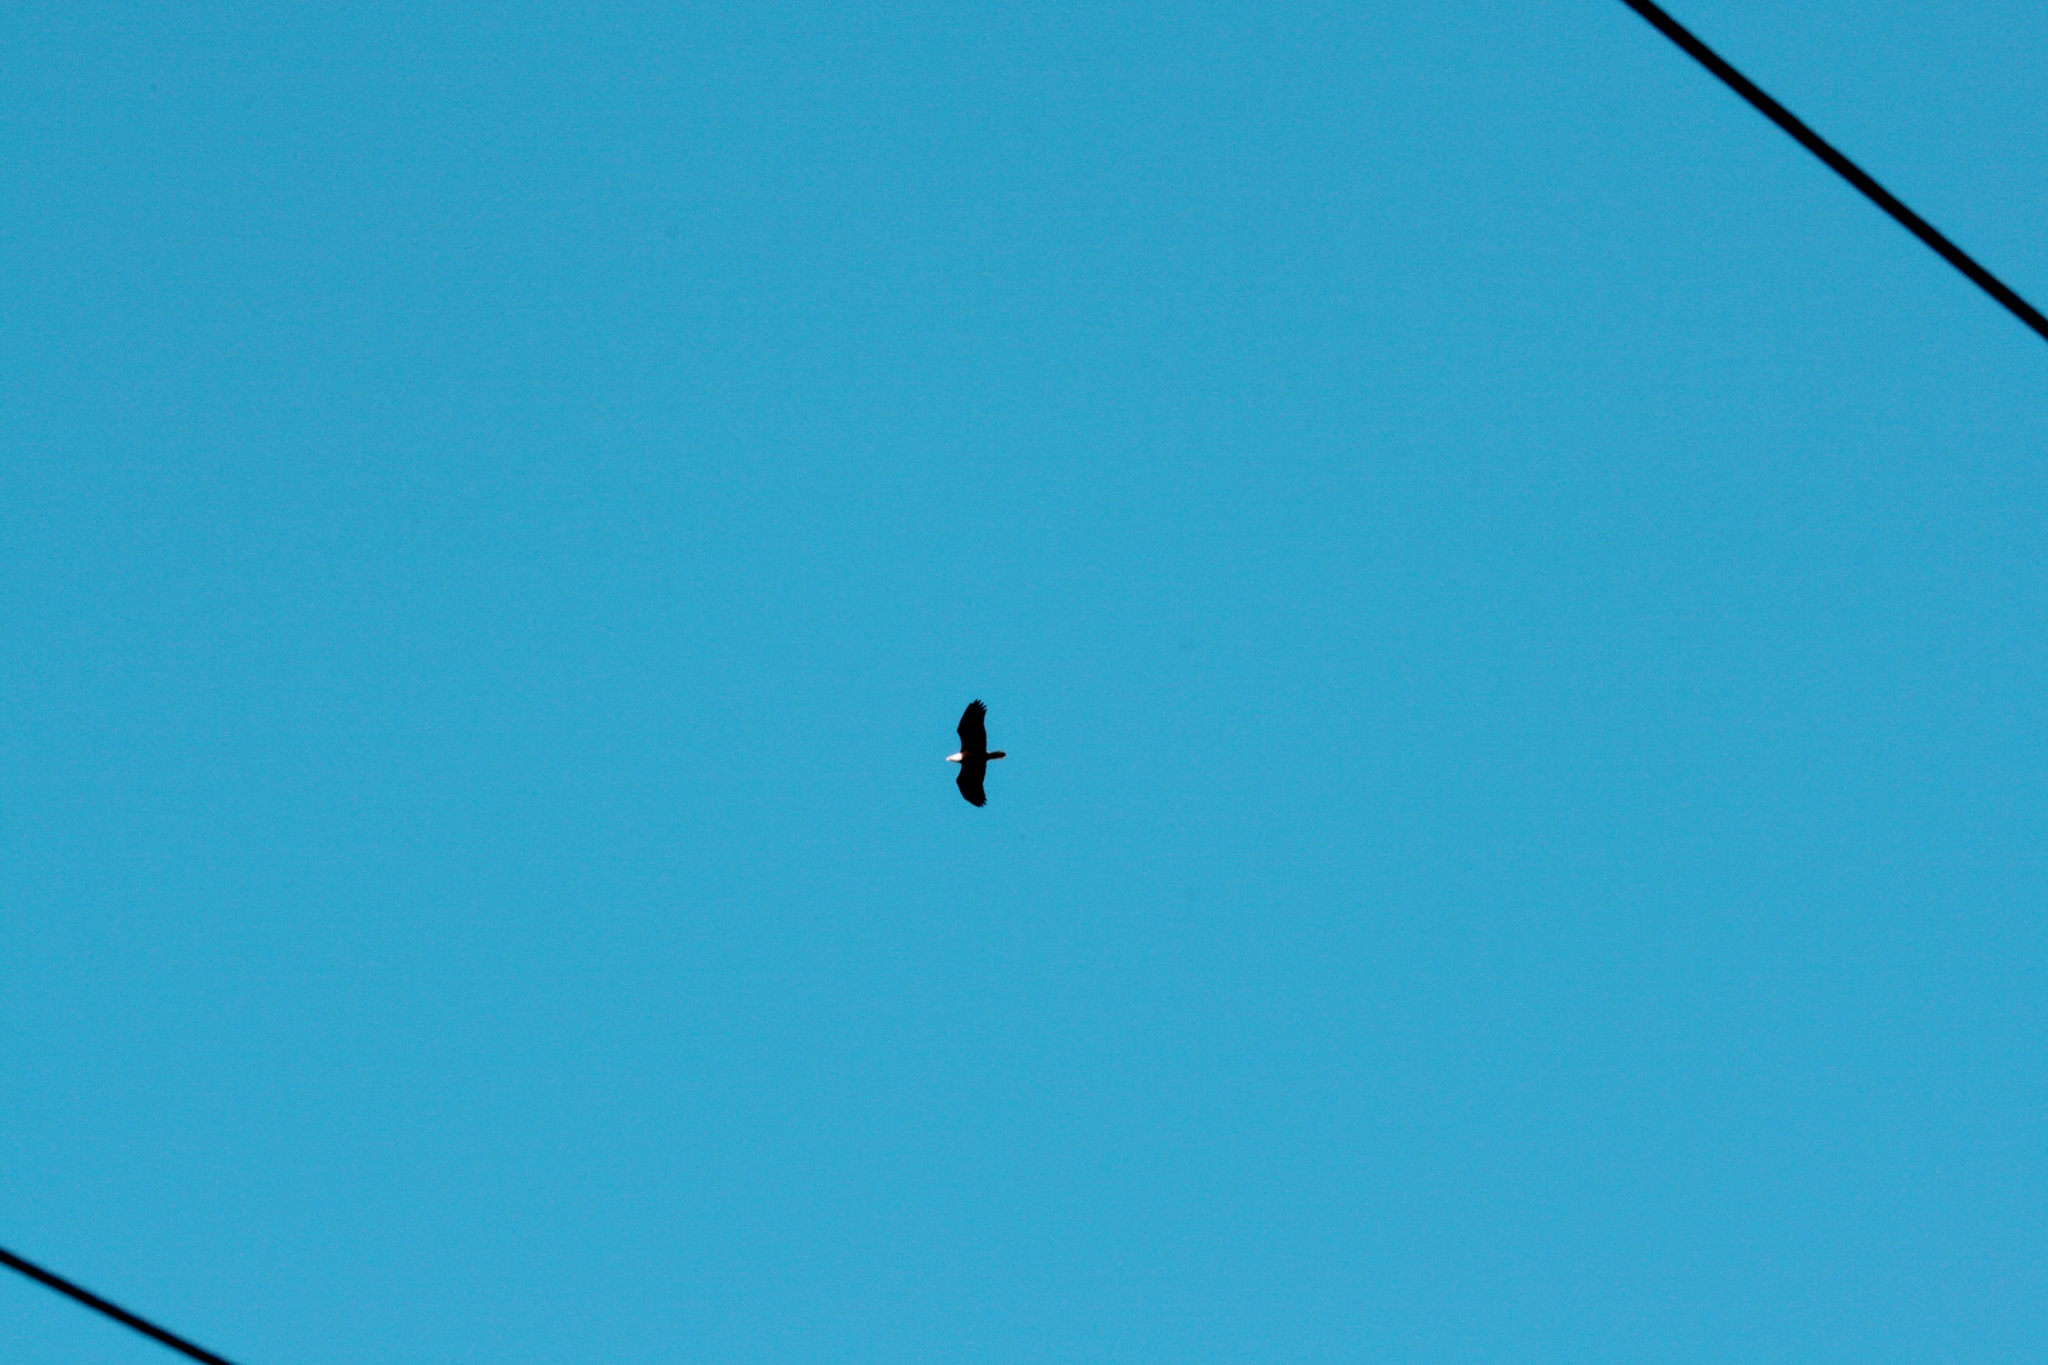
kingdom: Animalia
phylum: Chordata
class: Aves
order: Accipitriformes
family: Accipitridae
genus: Haliaeetus
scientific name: Haliaeetus leucocephalus
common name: Bald eagle
